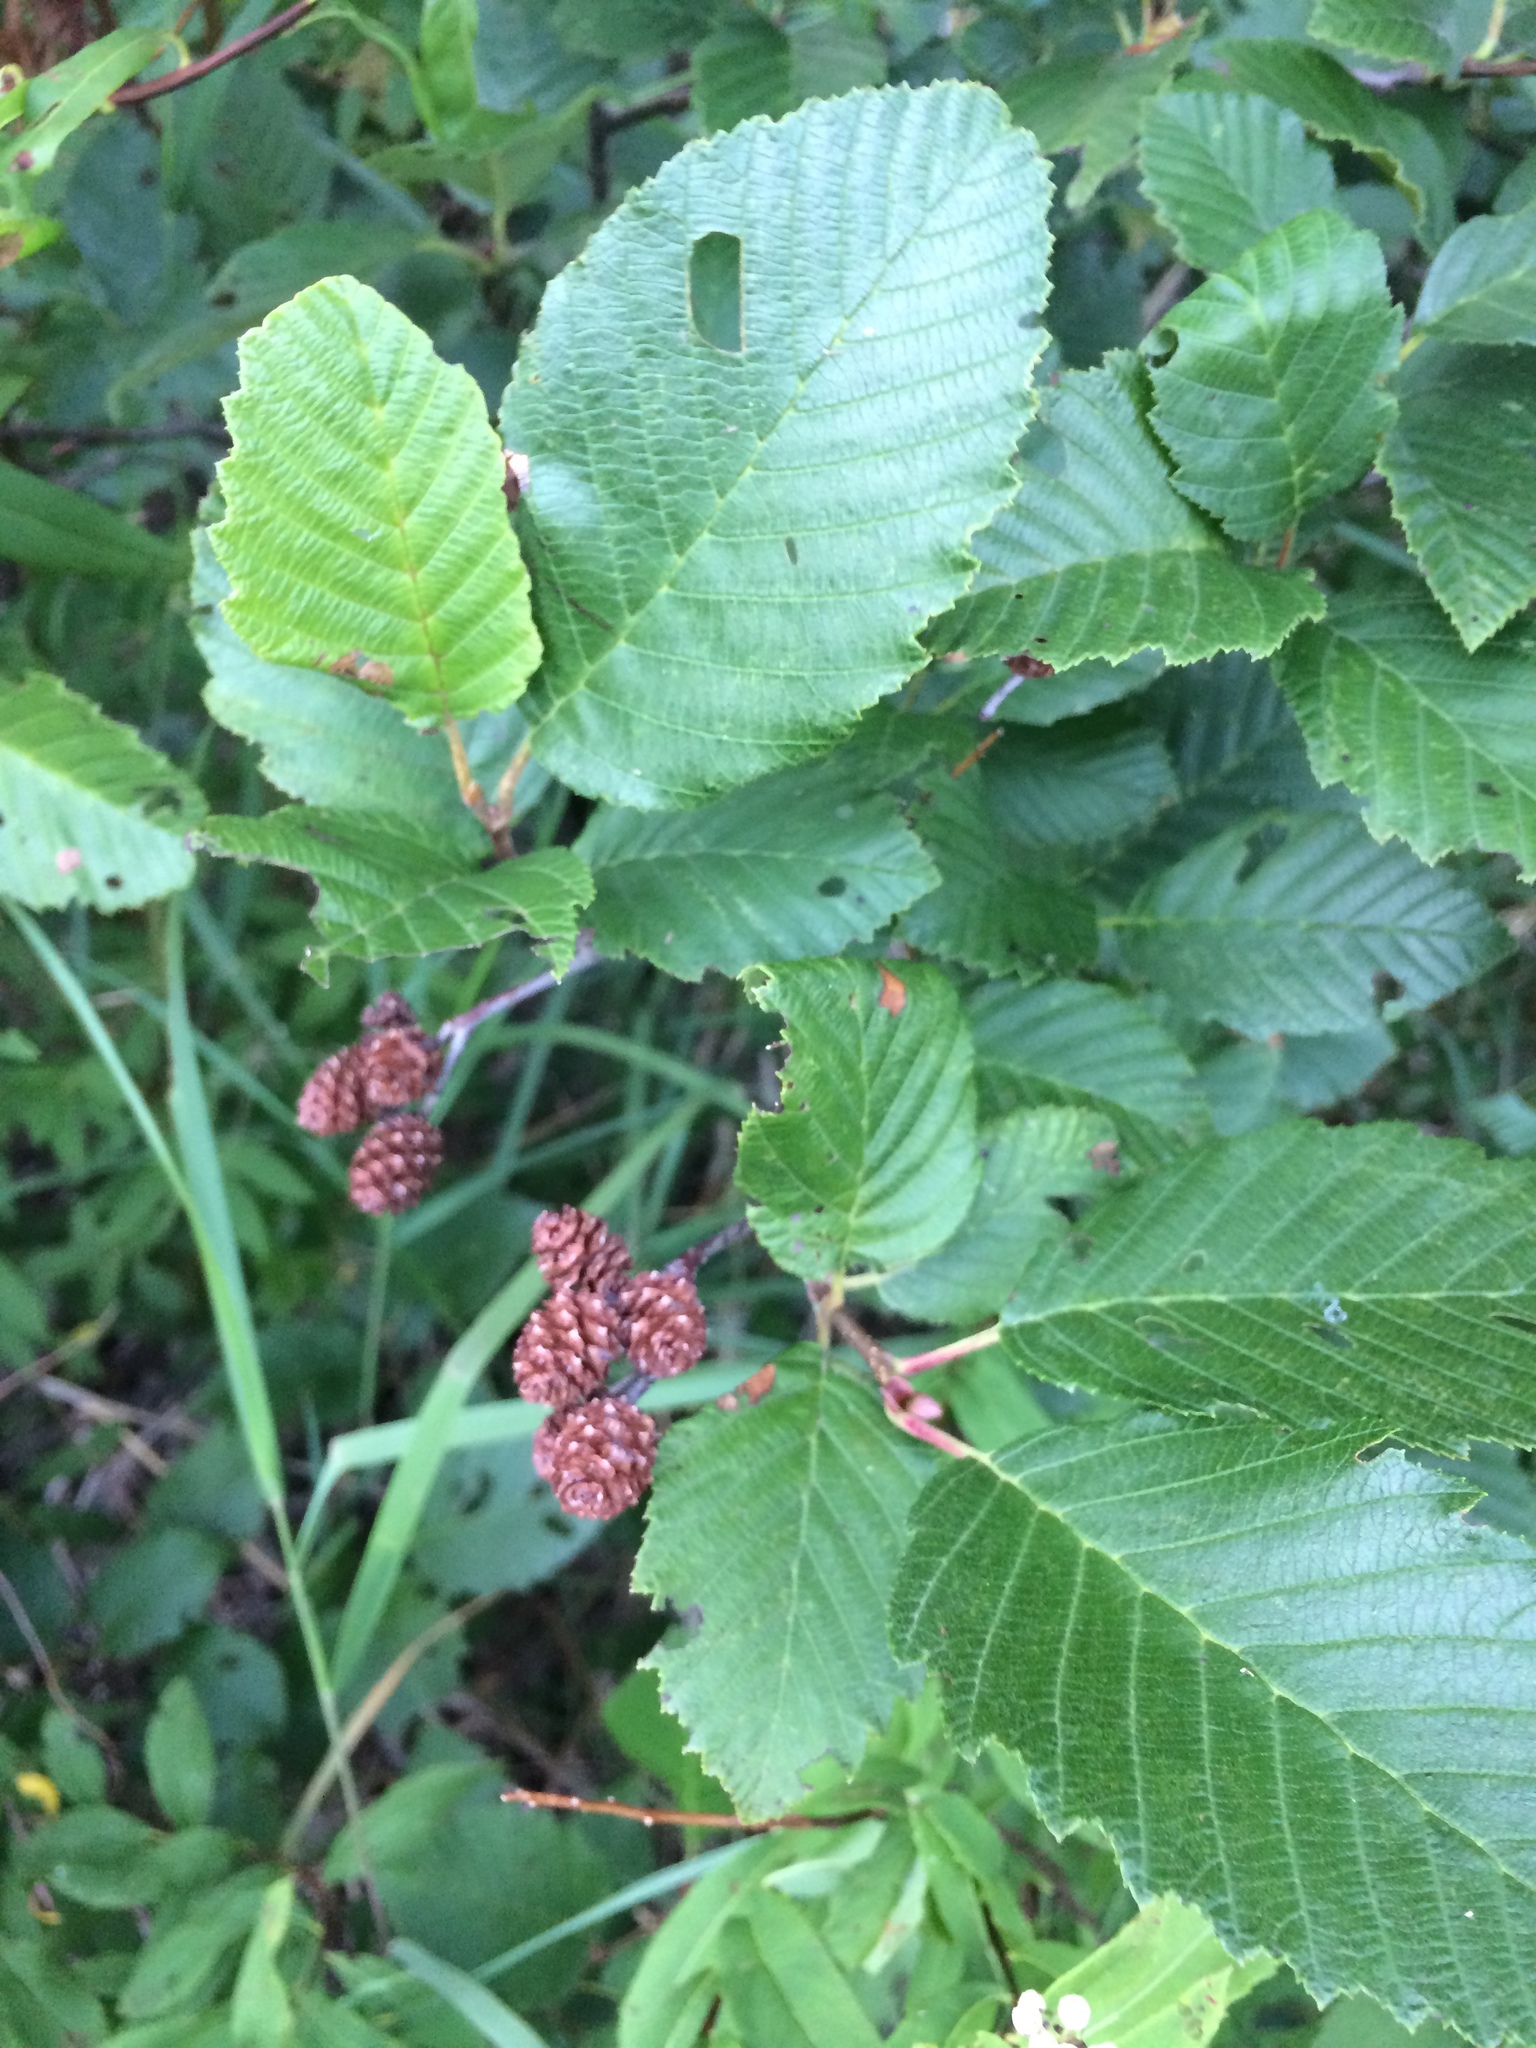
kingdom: Plantae
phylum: Tracheophyta
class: Magnoliopsida
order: Fagales
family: Betulaceae
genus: Alnus
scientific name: Alnus incana
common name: Grey alder
